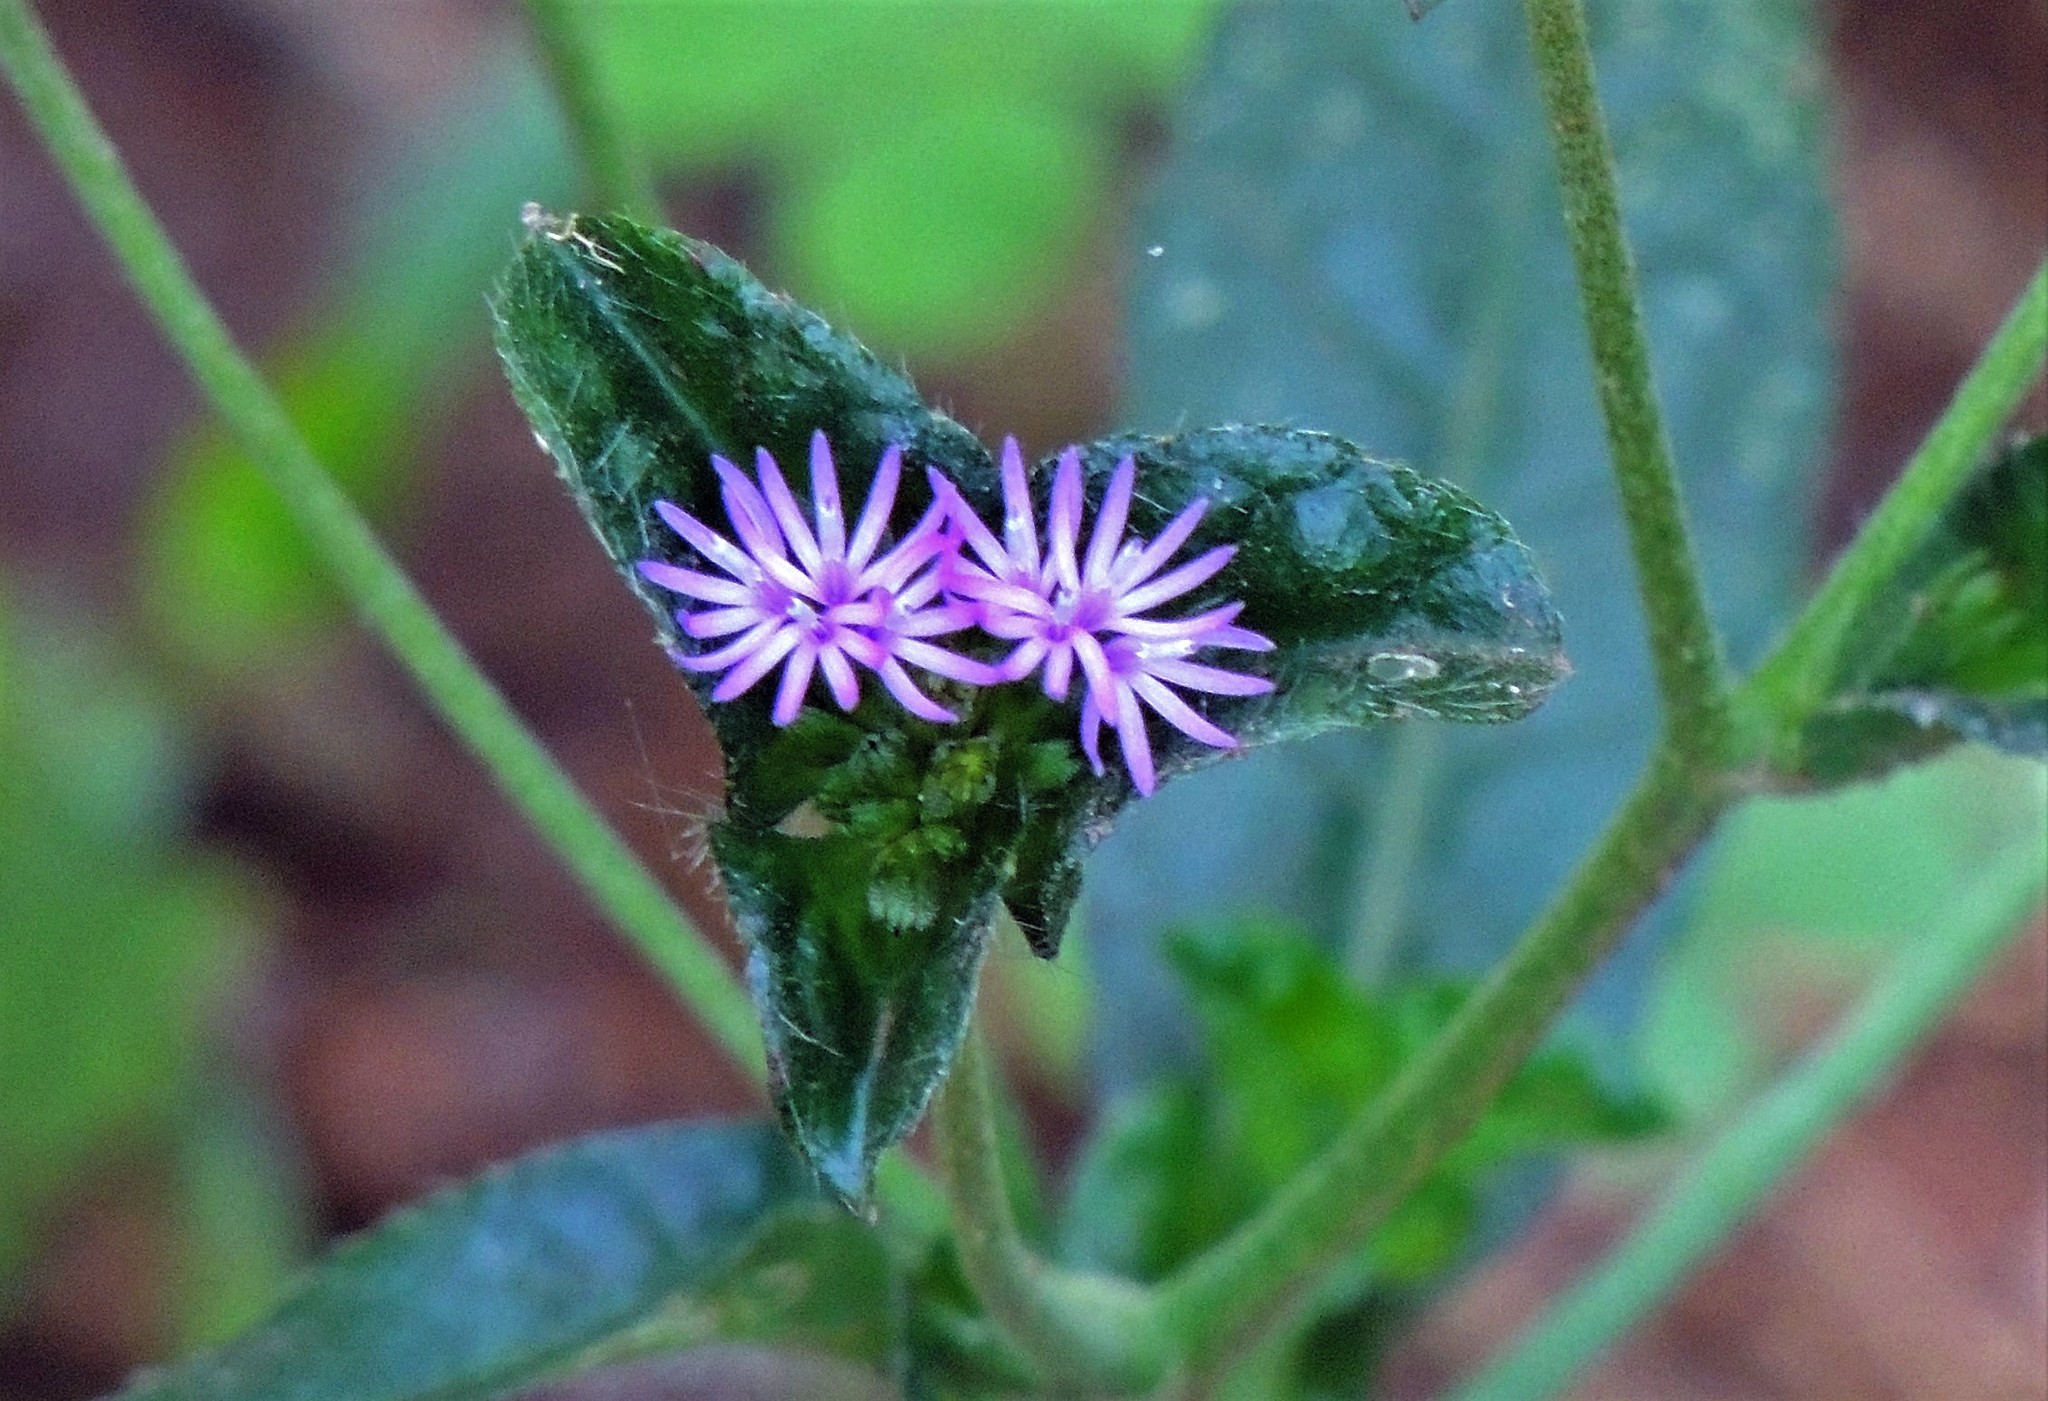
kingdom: Plantae
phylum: Tracheophyta
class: Magnoliopsida
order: Asterales
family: Asteraceae
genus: Elephantopus
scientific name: Elephantopus mollis
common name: Soft elephantsfoot
